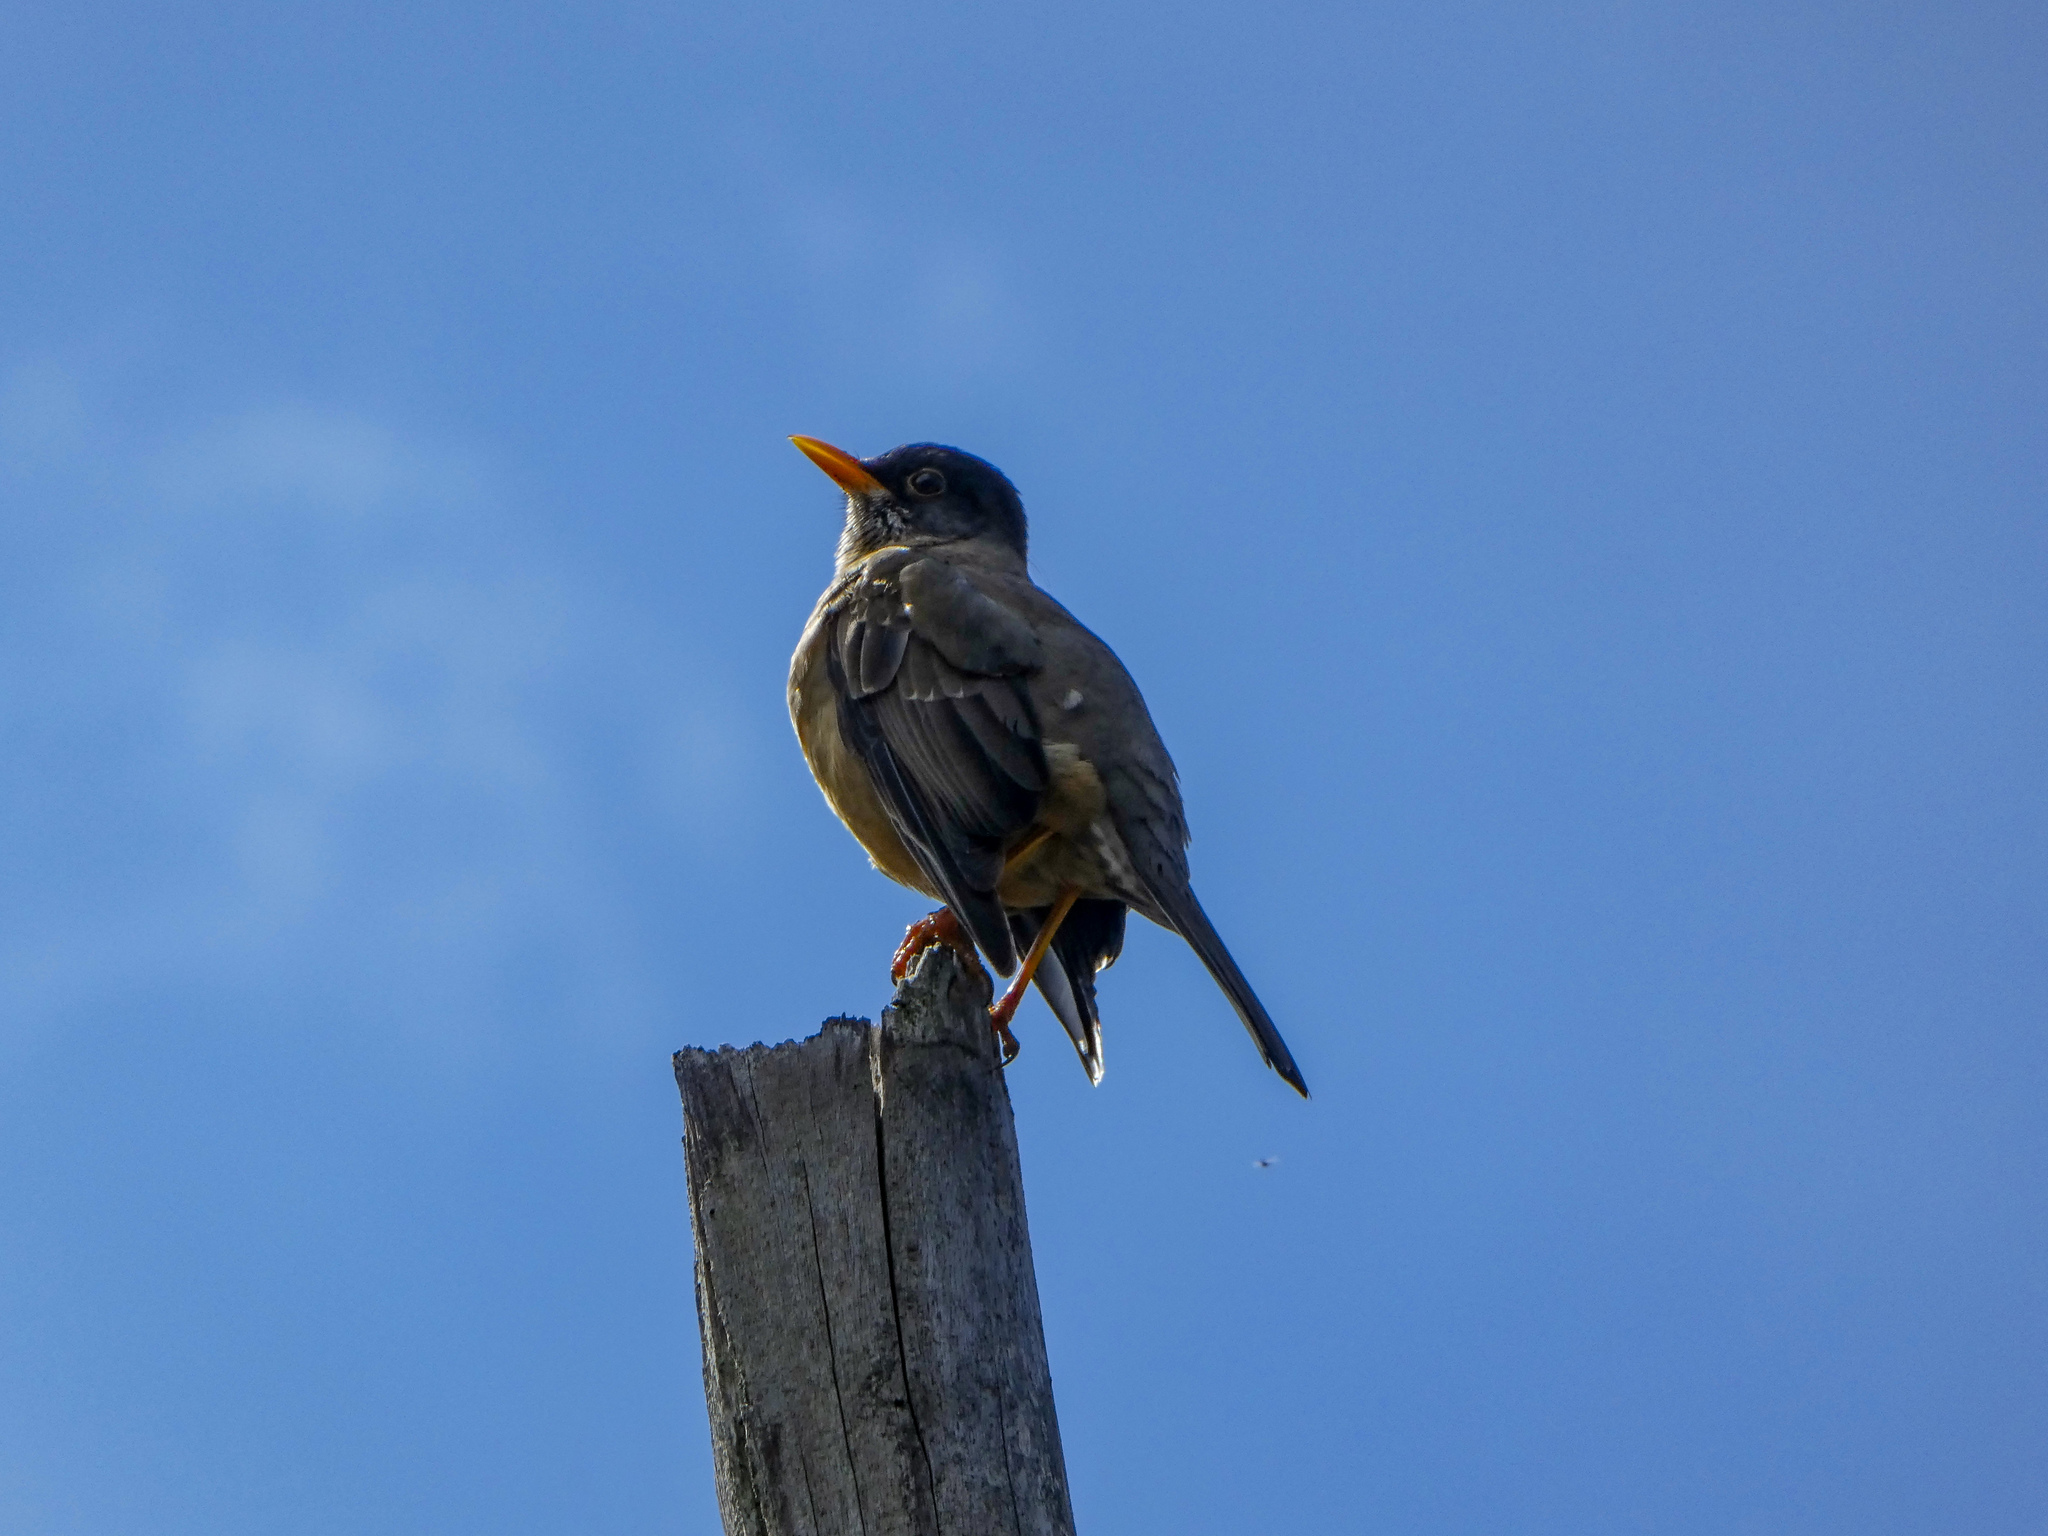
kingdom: Animalia
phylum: Chordata
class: Aves
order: Passeriformes
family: Turdidae
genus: Turdus
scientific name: Turdus falcklandii
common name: Austral thrush
